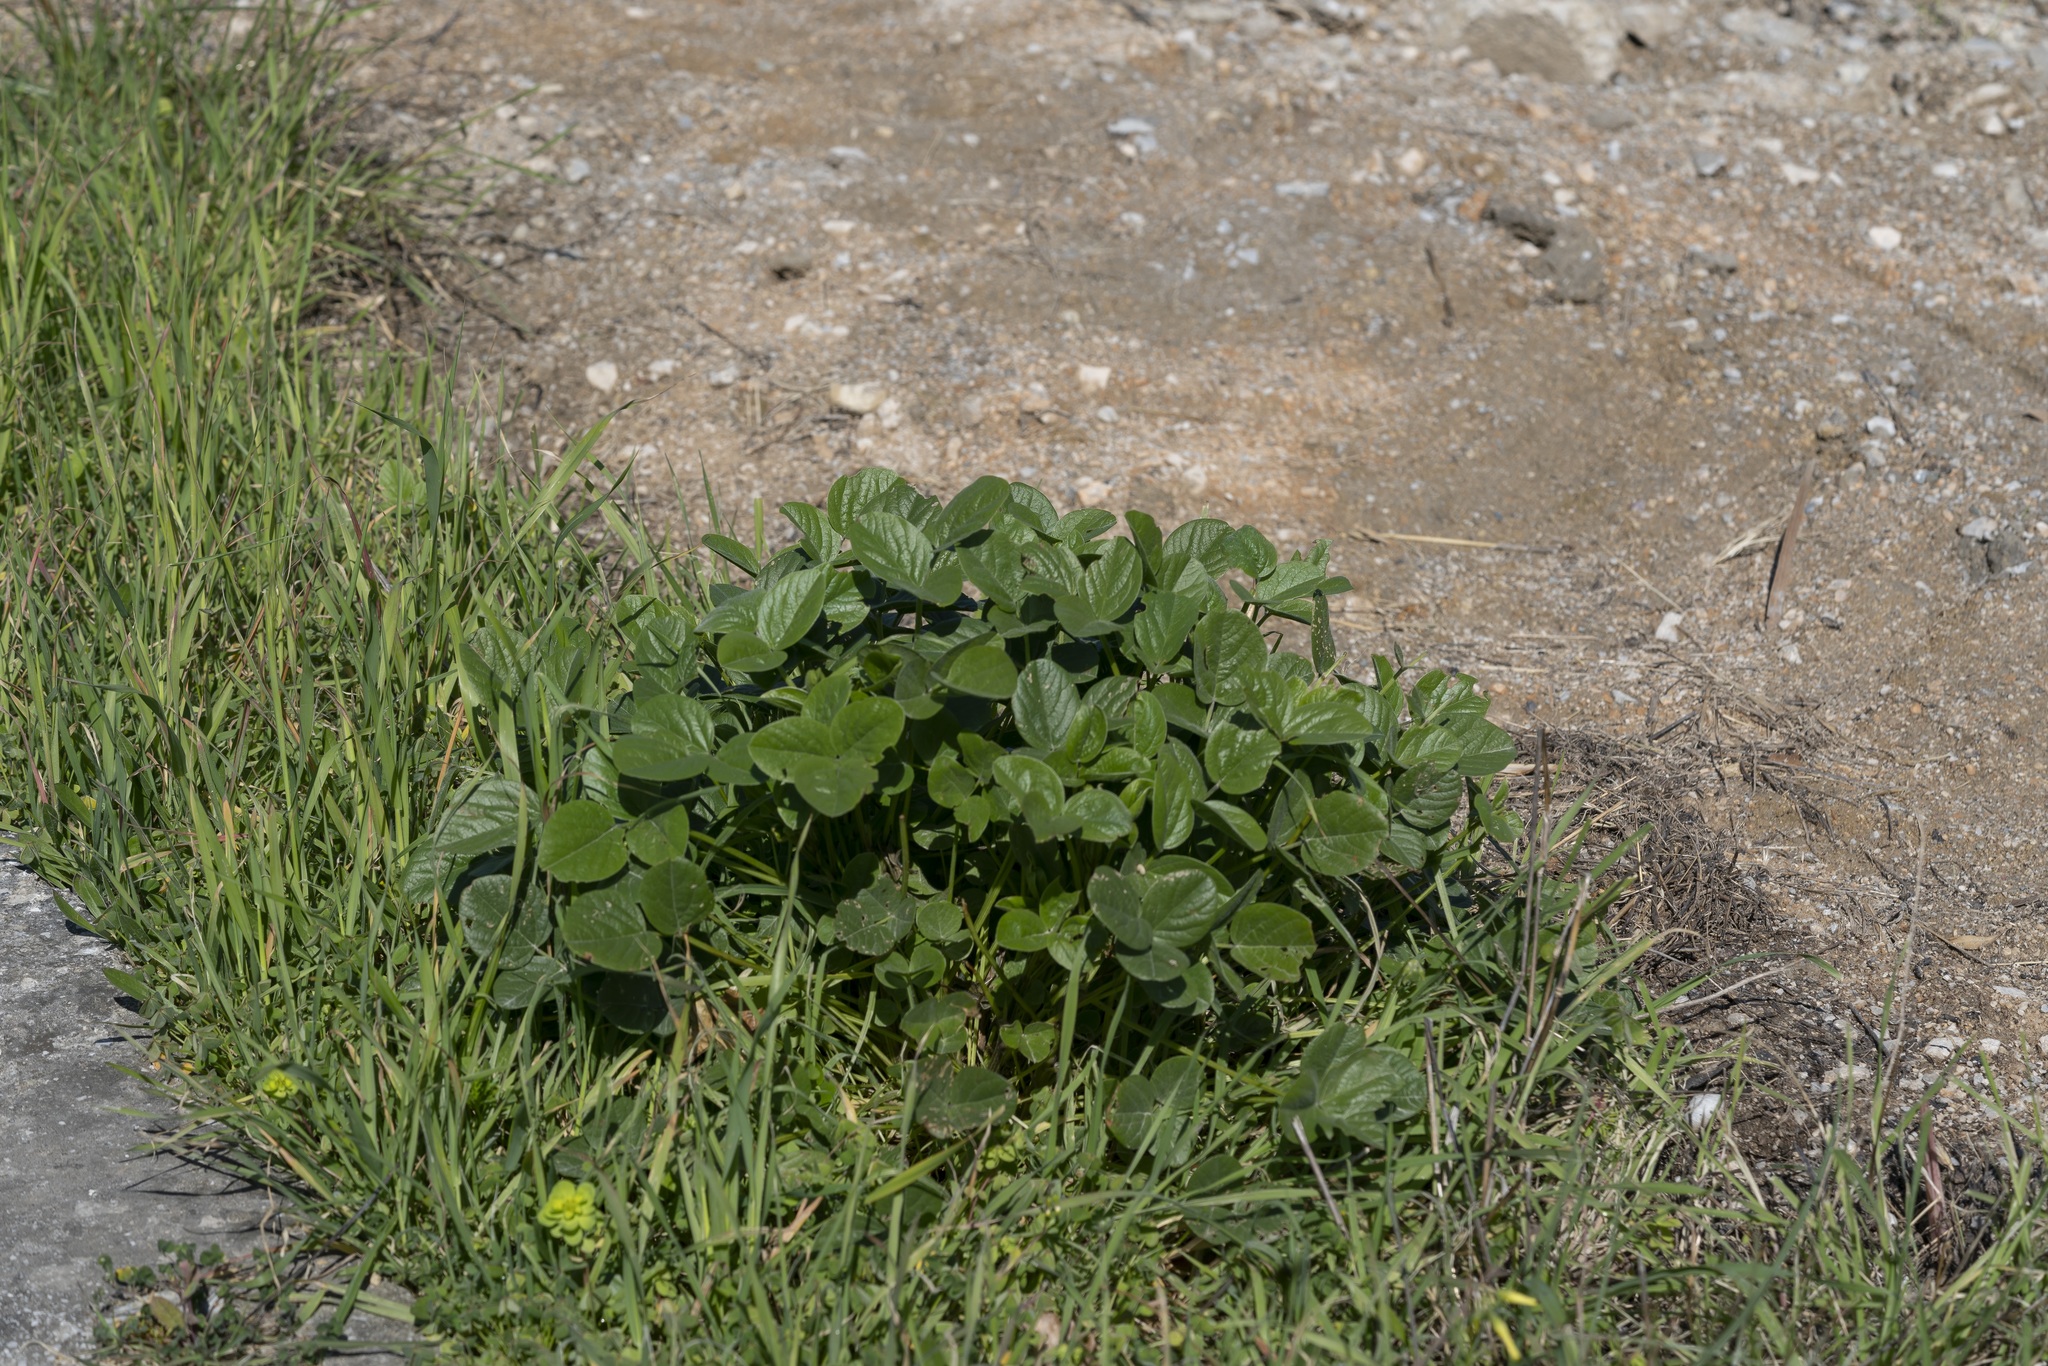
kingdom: Plantae
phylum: Tracheophyta
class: Magnoliopsida
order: Fabales
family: Fabaceae
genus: Bituminaria
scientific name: Bituminaria bituminosa
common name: Arabian pea
